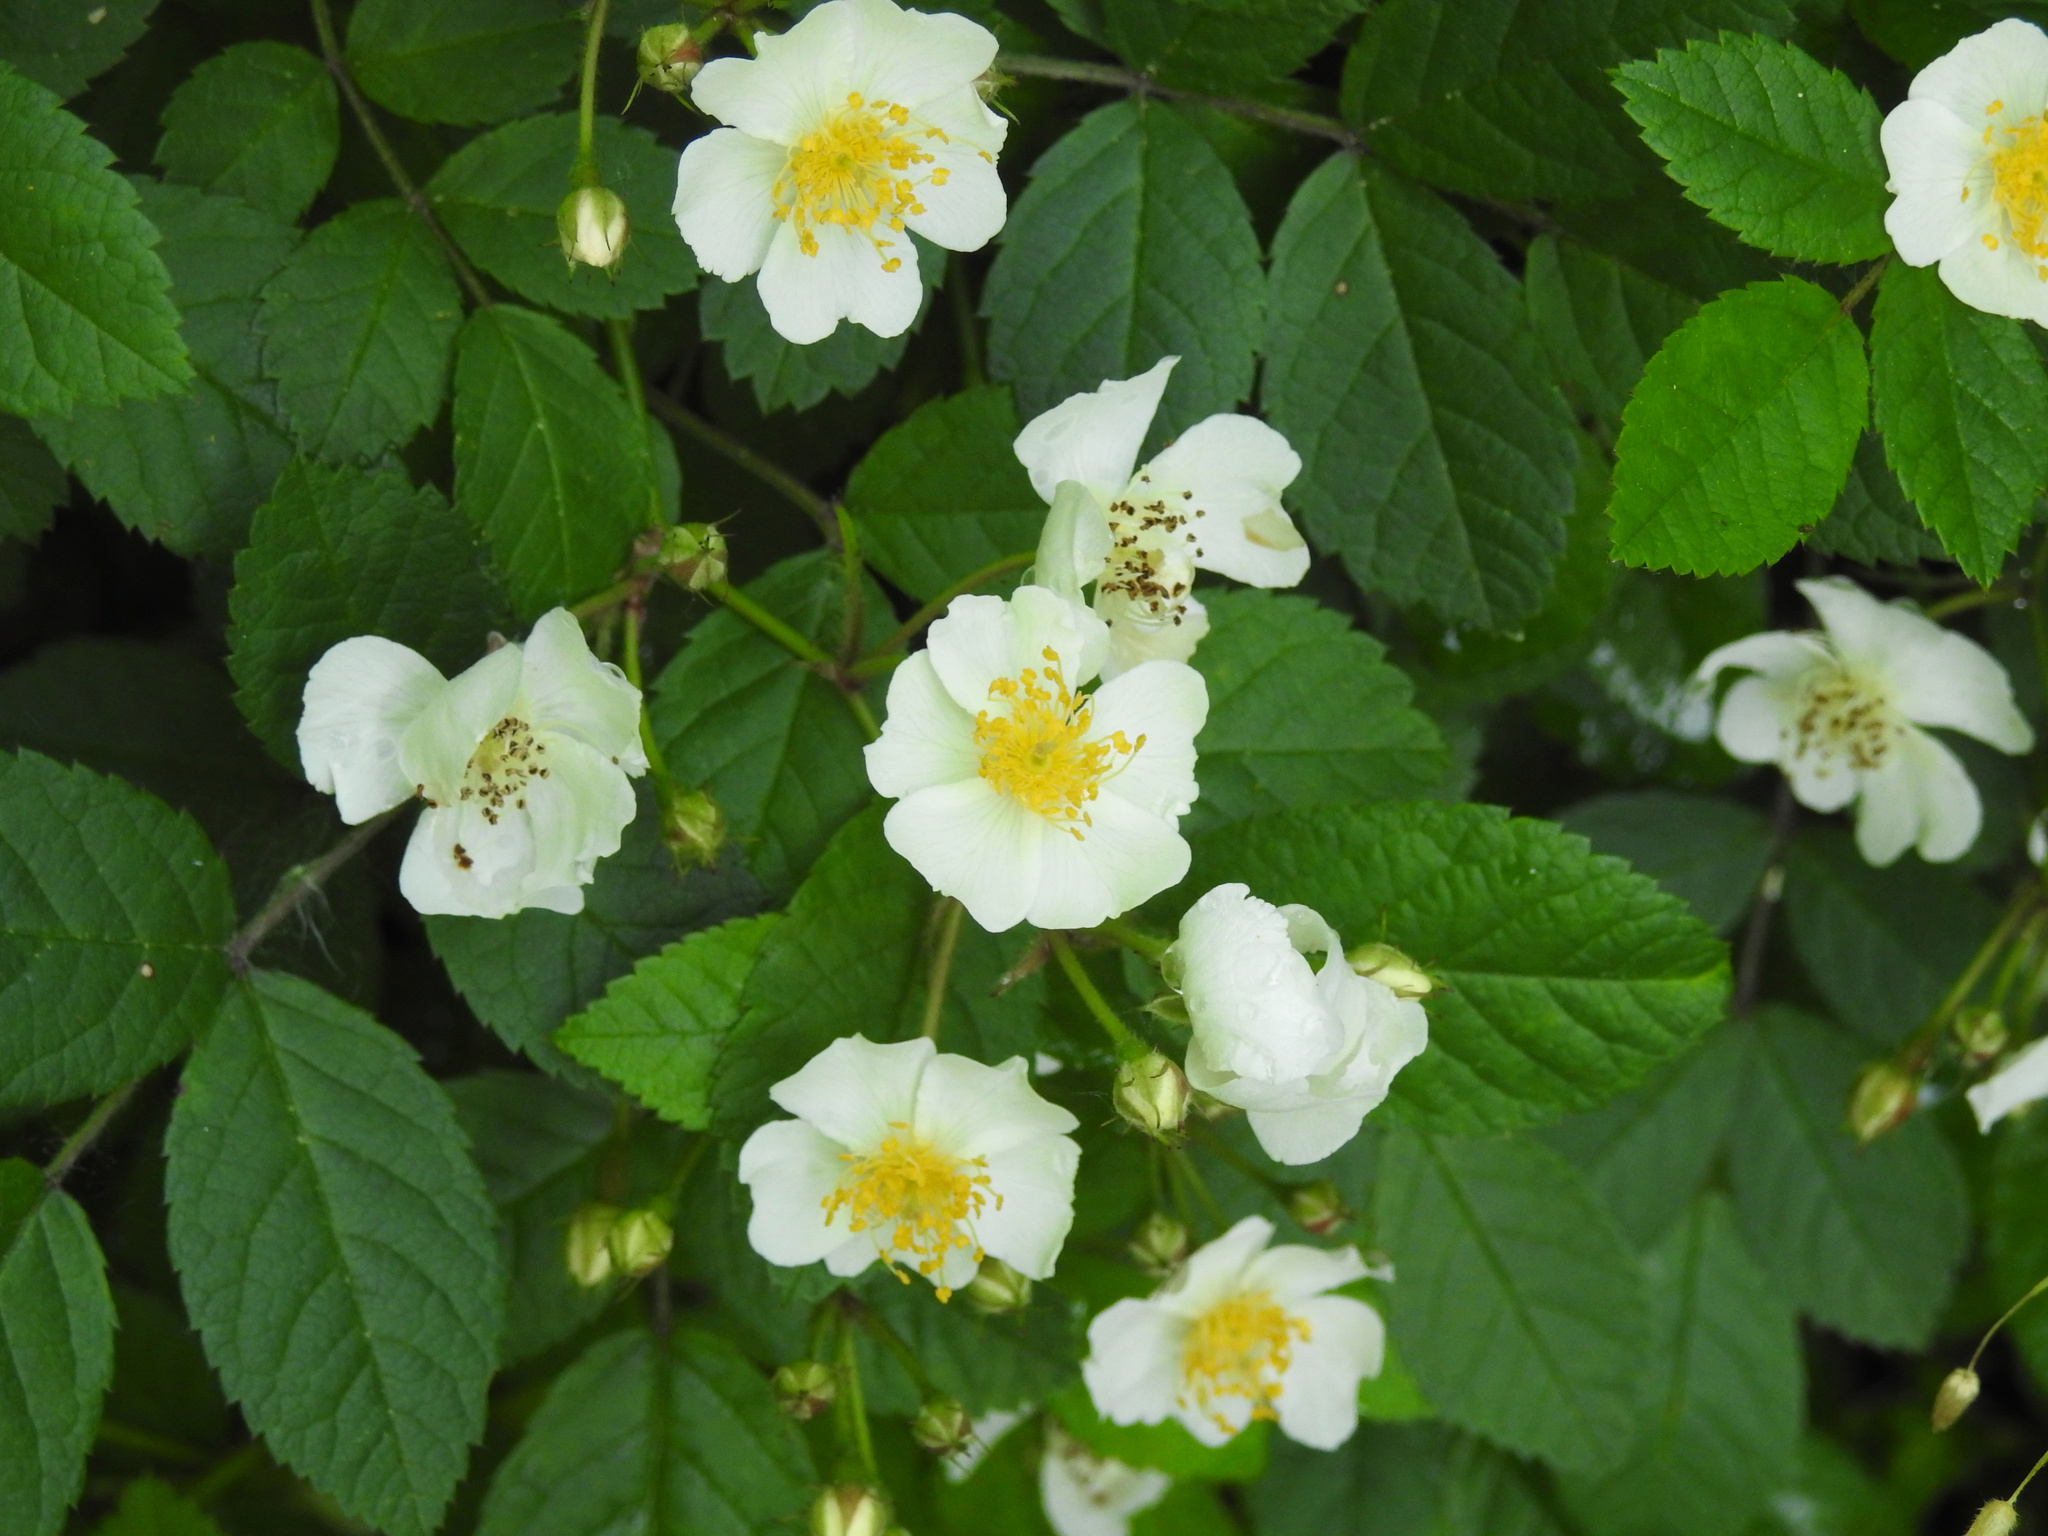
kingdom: Plantae
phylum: Tracheophyta
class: Magnoliopsida
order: Rosales
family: Rosaceae
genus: Rosa
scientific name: Rosa multiflora
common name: Multiflora rose
